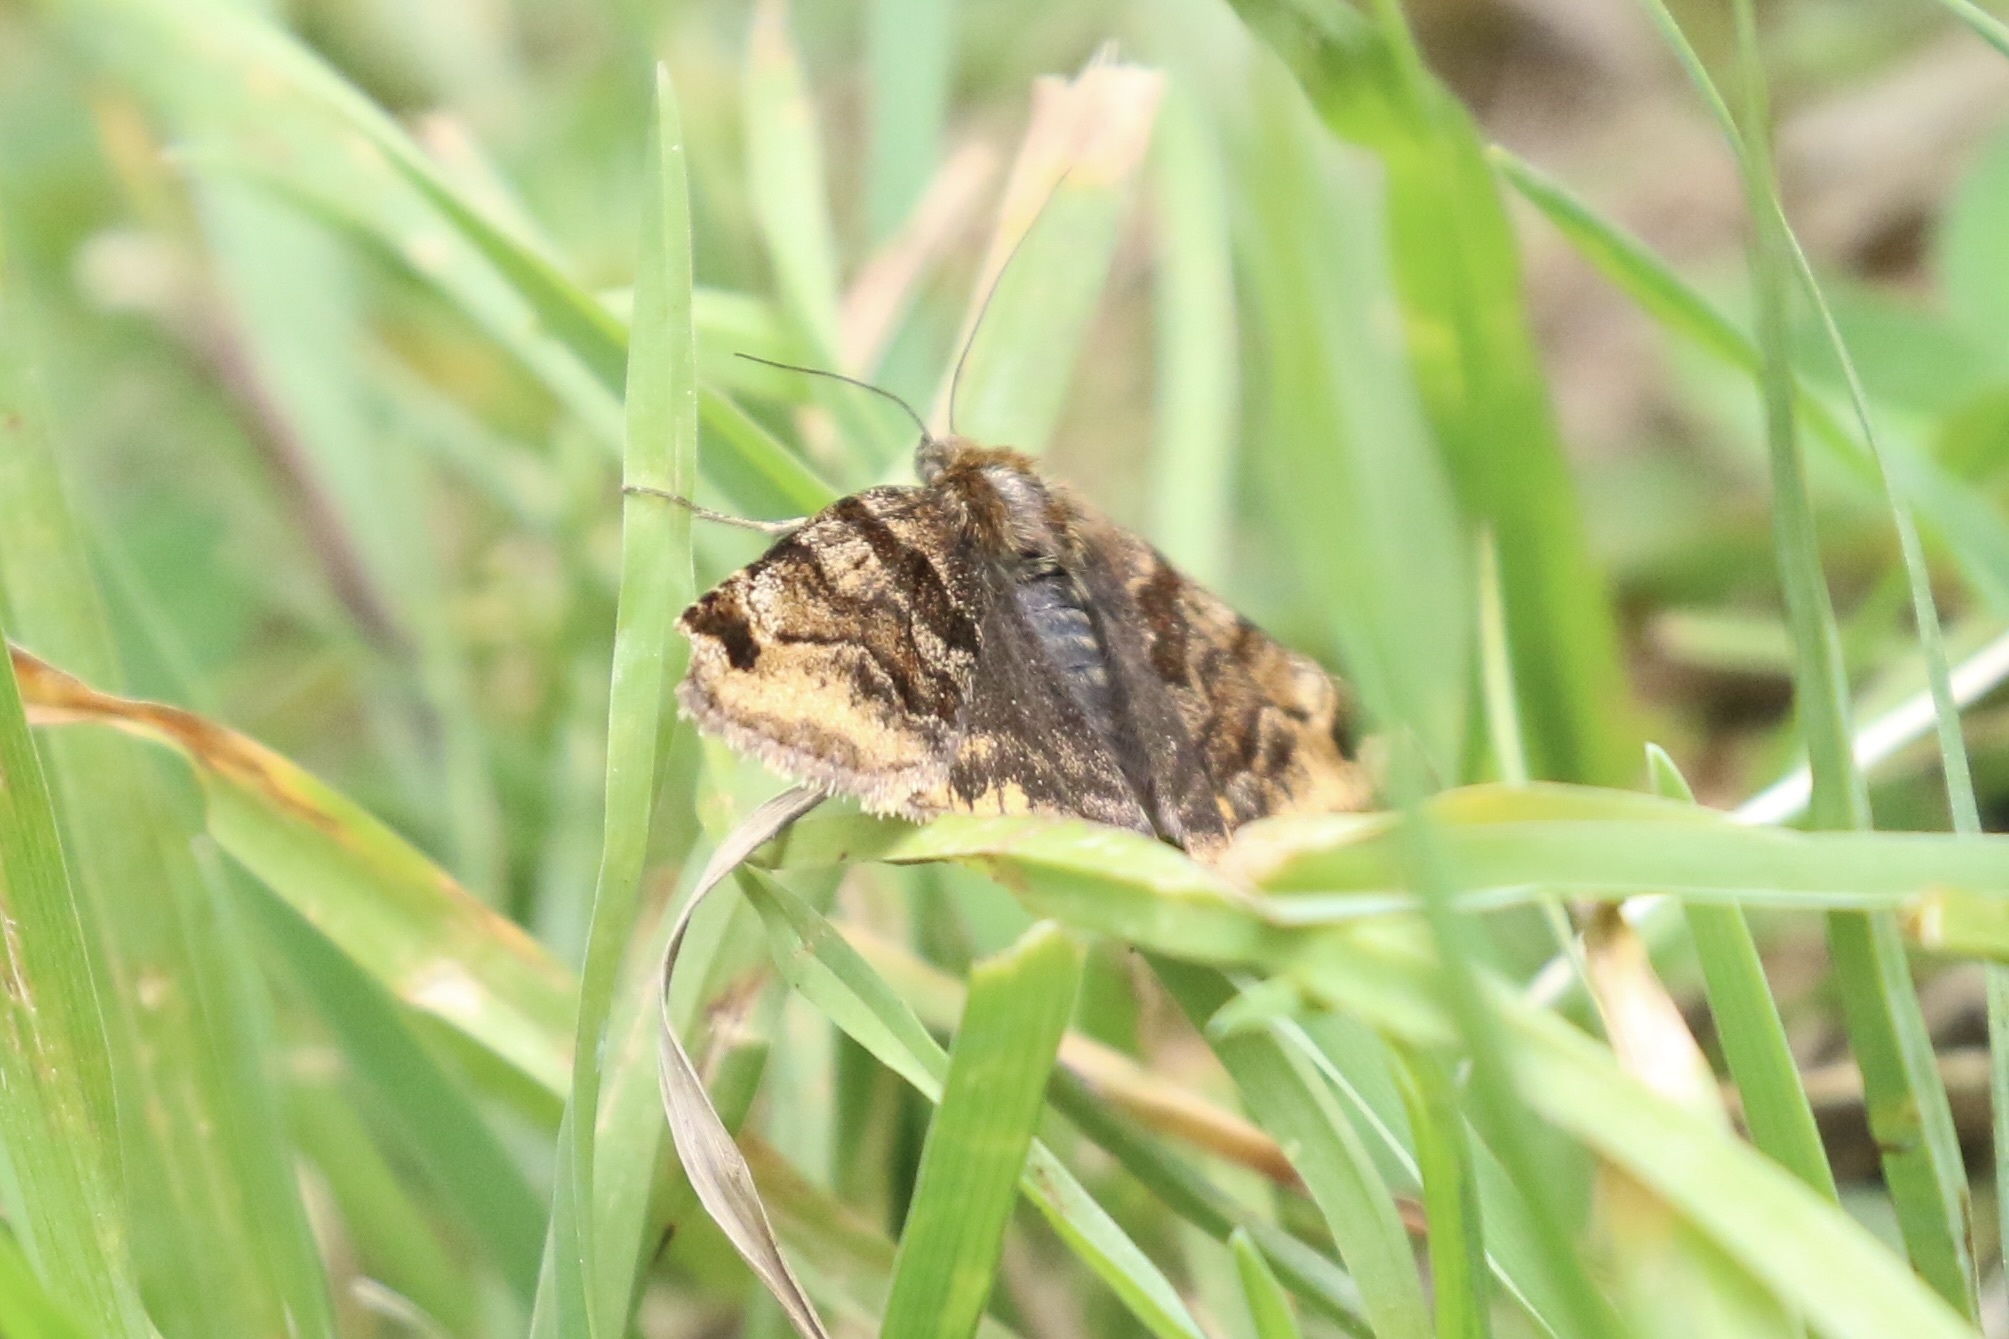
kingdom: Animalia
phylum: Arthropoda
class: Insecta
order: Lepidoptera
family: Erebidae
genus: Euclidia
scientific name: Euclidia glyphica
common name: Burnet companion
